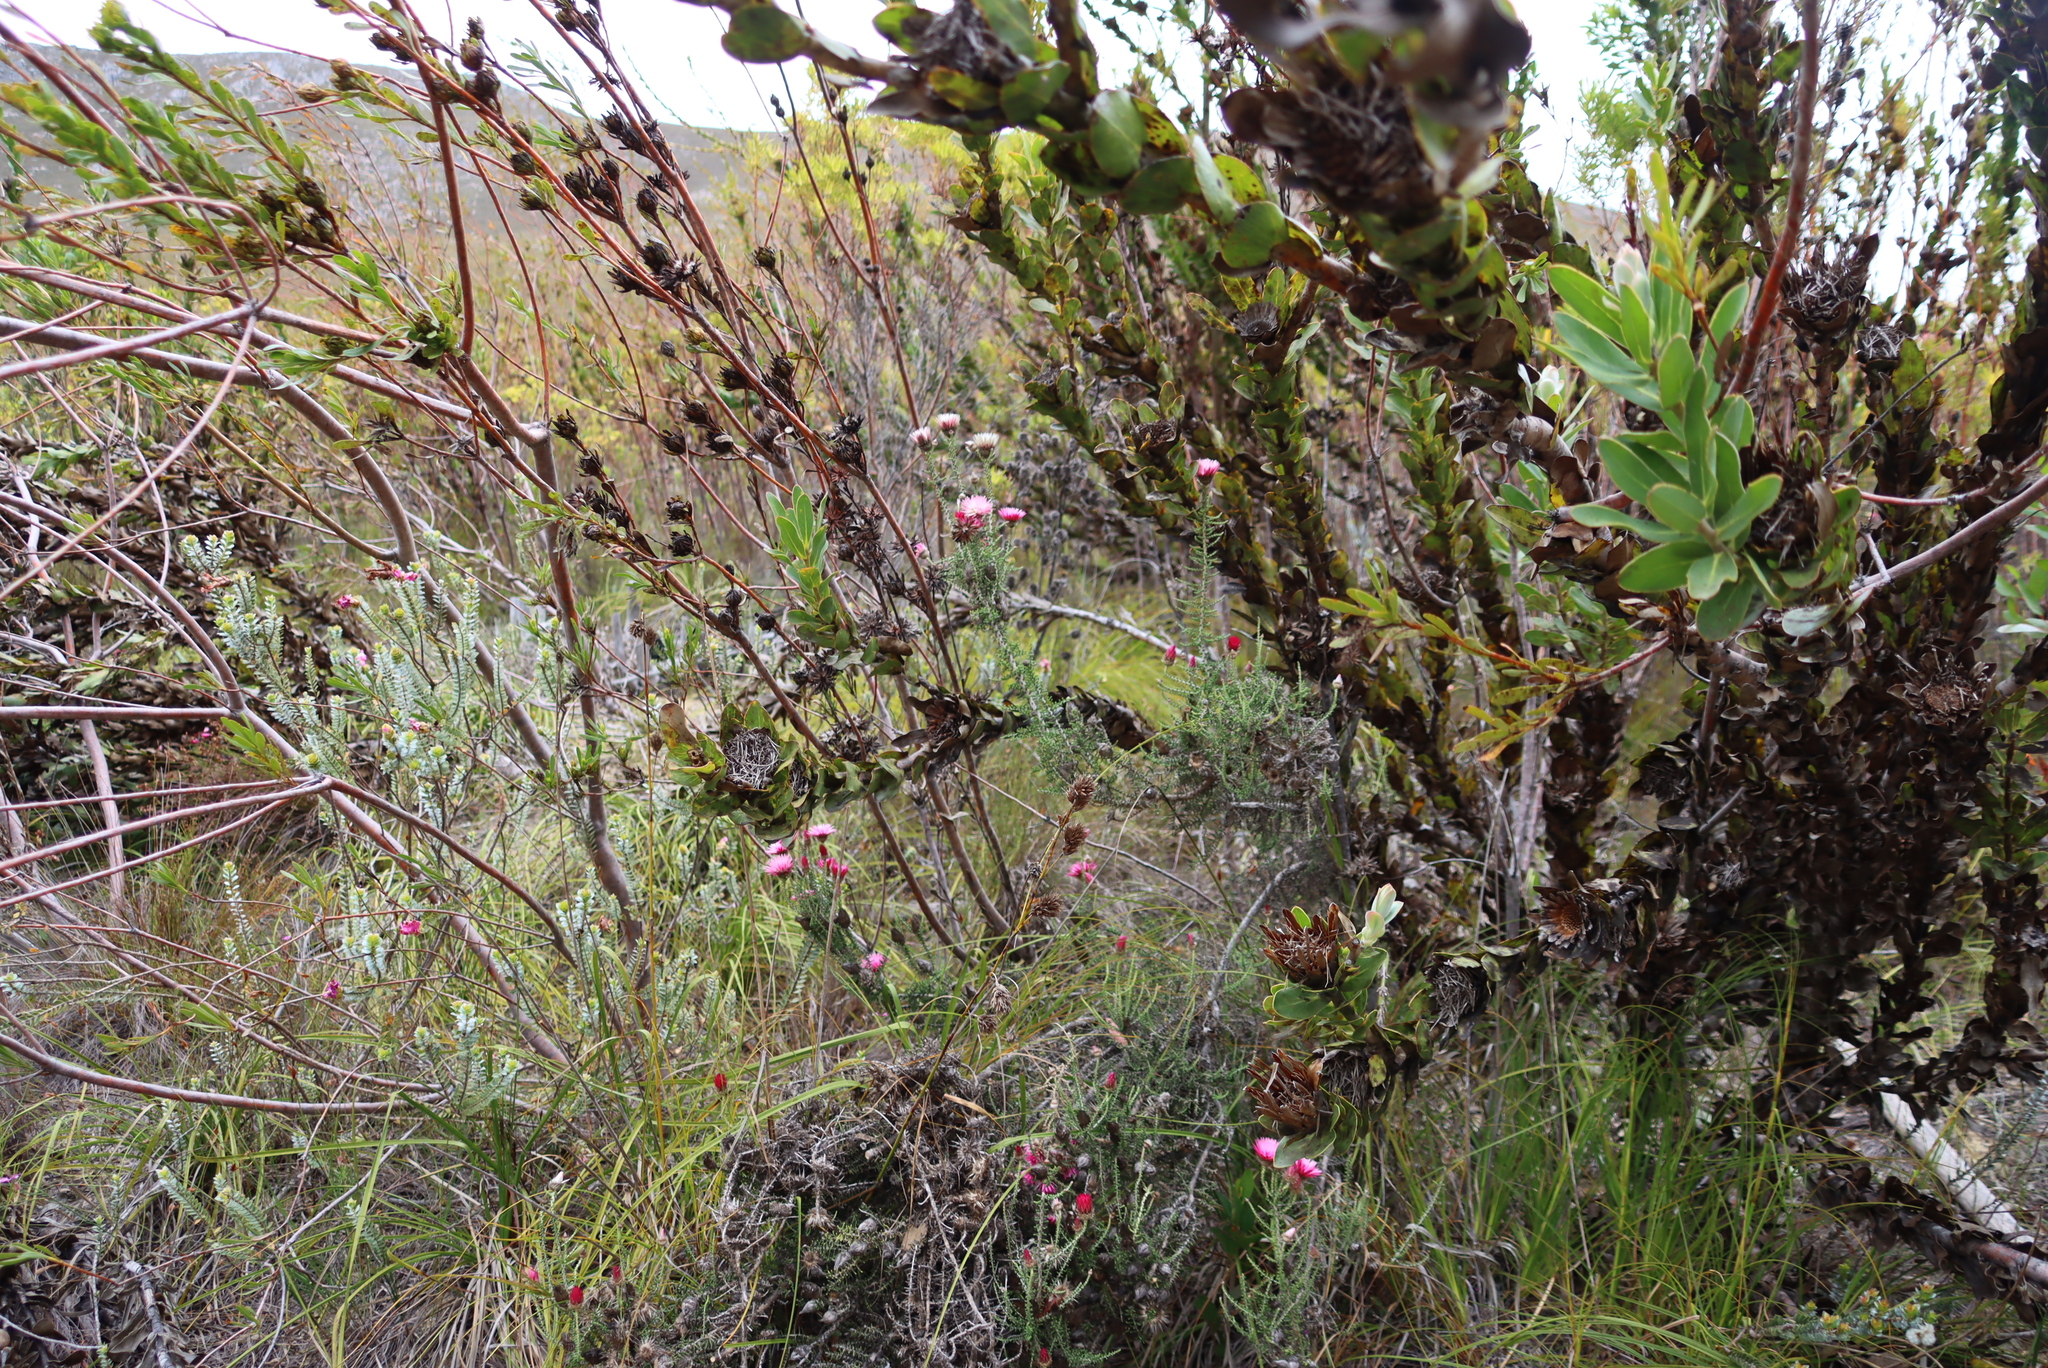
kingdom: Plantae
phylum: Tracheophyta
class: Magnoliopsida
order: Asterales
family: Asteraceae
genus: Phaenocoma
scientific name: Phaenocoma prolifera
